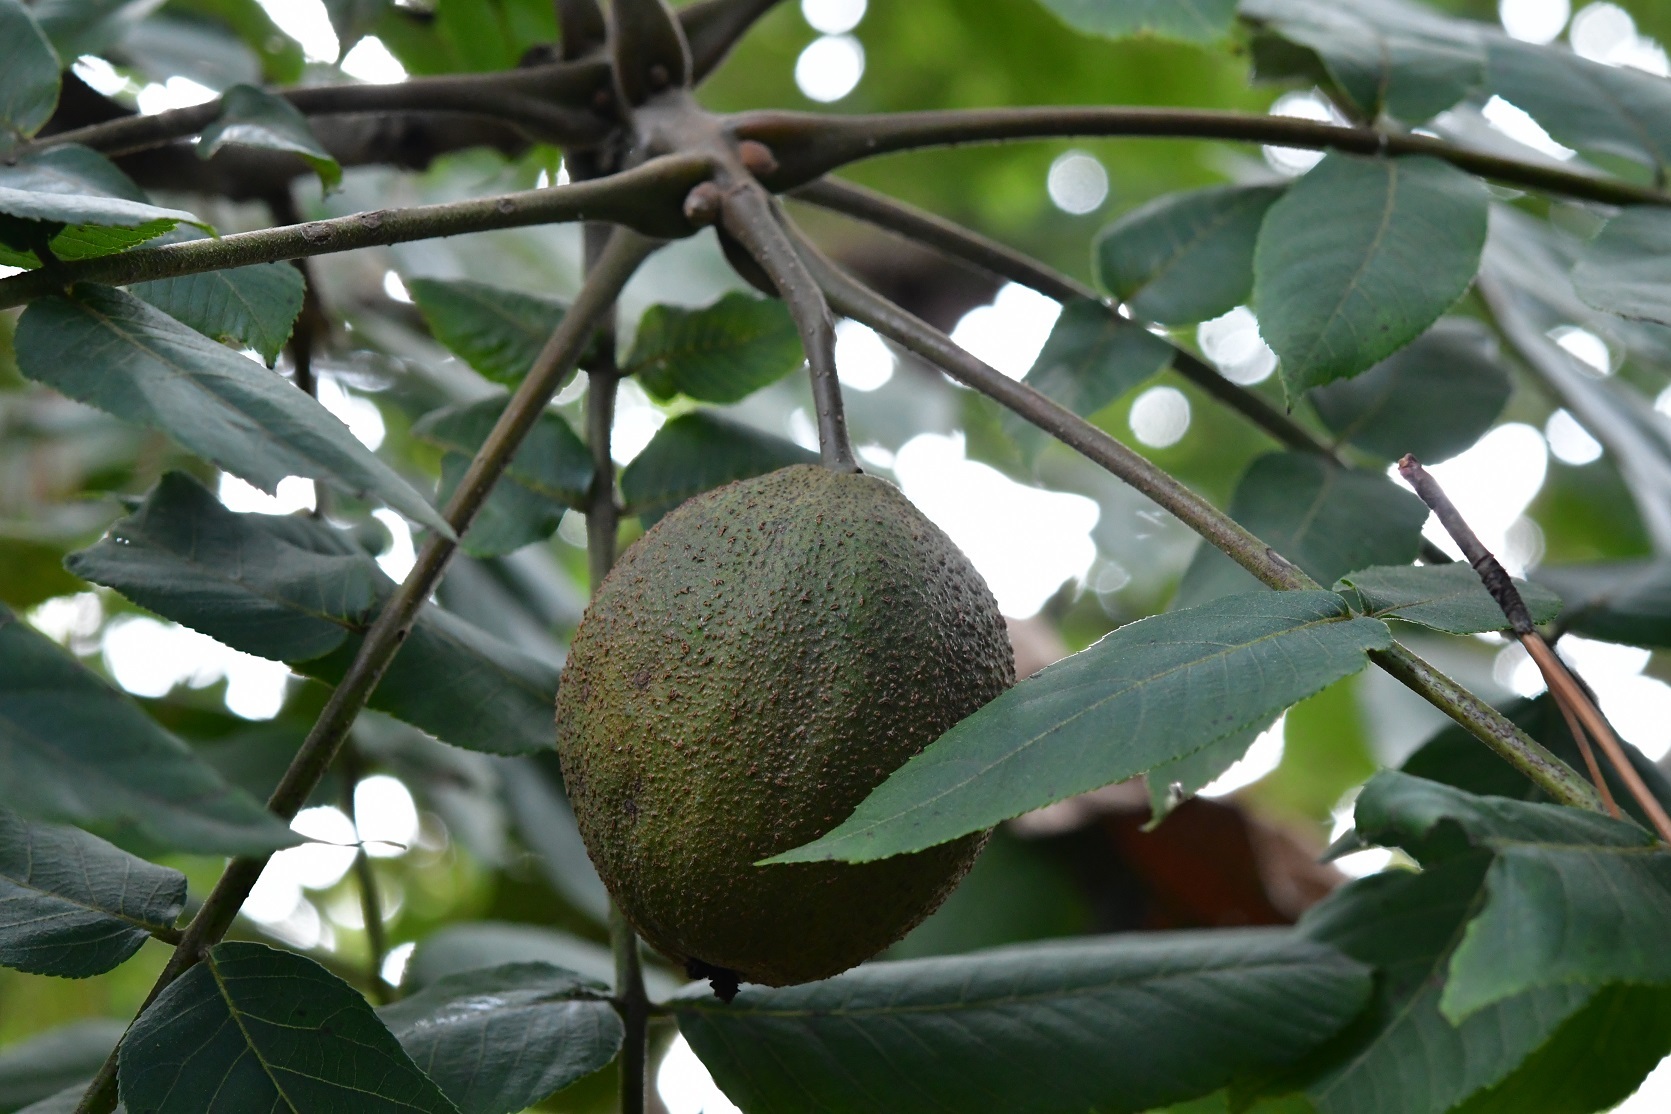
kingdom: Plantae
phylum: Tracheophyta
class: Magnoliopsida
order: Fagales
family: Juglandaceae
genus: Juglans
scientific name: Juglans olanchana
